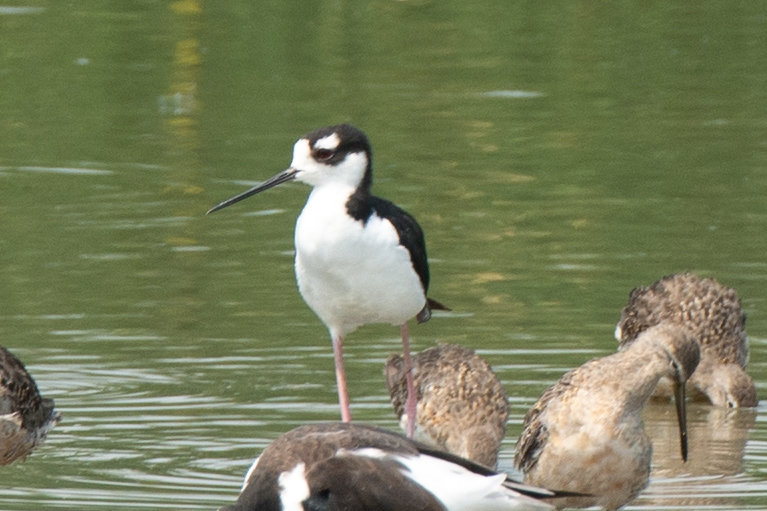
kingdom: Animalia
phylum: Chordata
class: Aves
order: Charadriiformes
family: Recurvirostridae
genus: Himantopus
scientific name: Himantopus mexicanus
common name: Black-necked stilt
